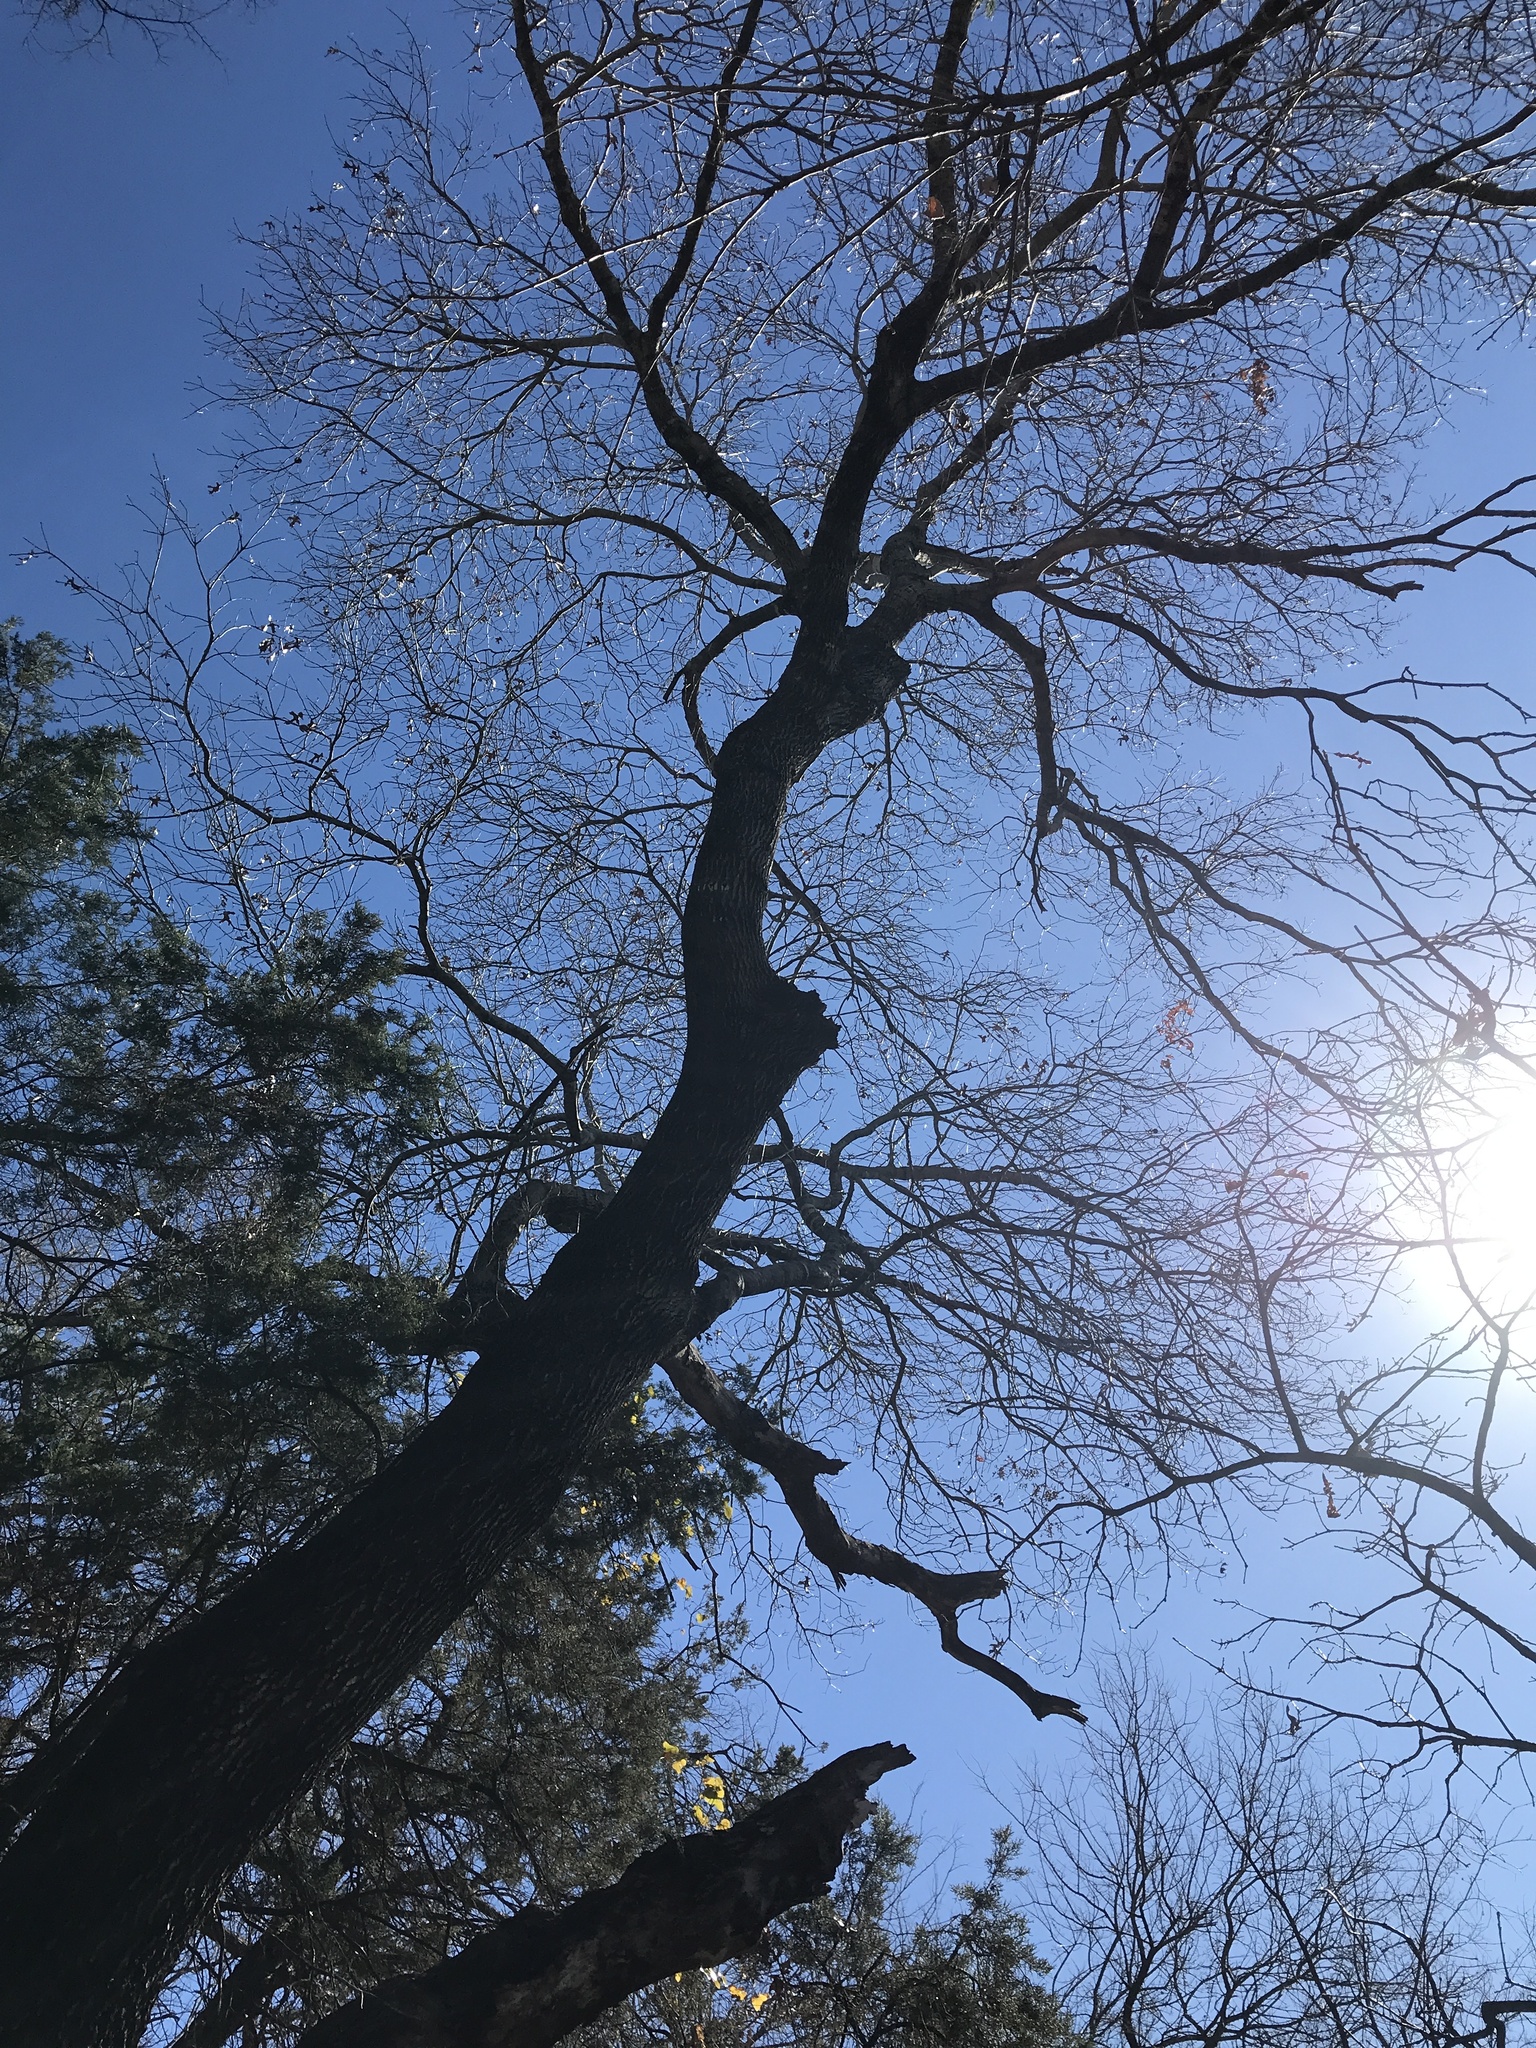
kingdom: Plantae
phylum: Tracheophyta
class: Magnoliopsida
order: Fagales
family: Fagaceae
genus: Quercus
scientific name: Quercus buckleyi
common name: Buckley oak
